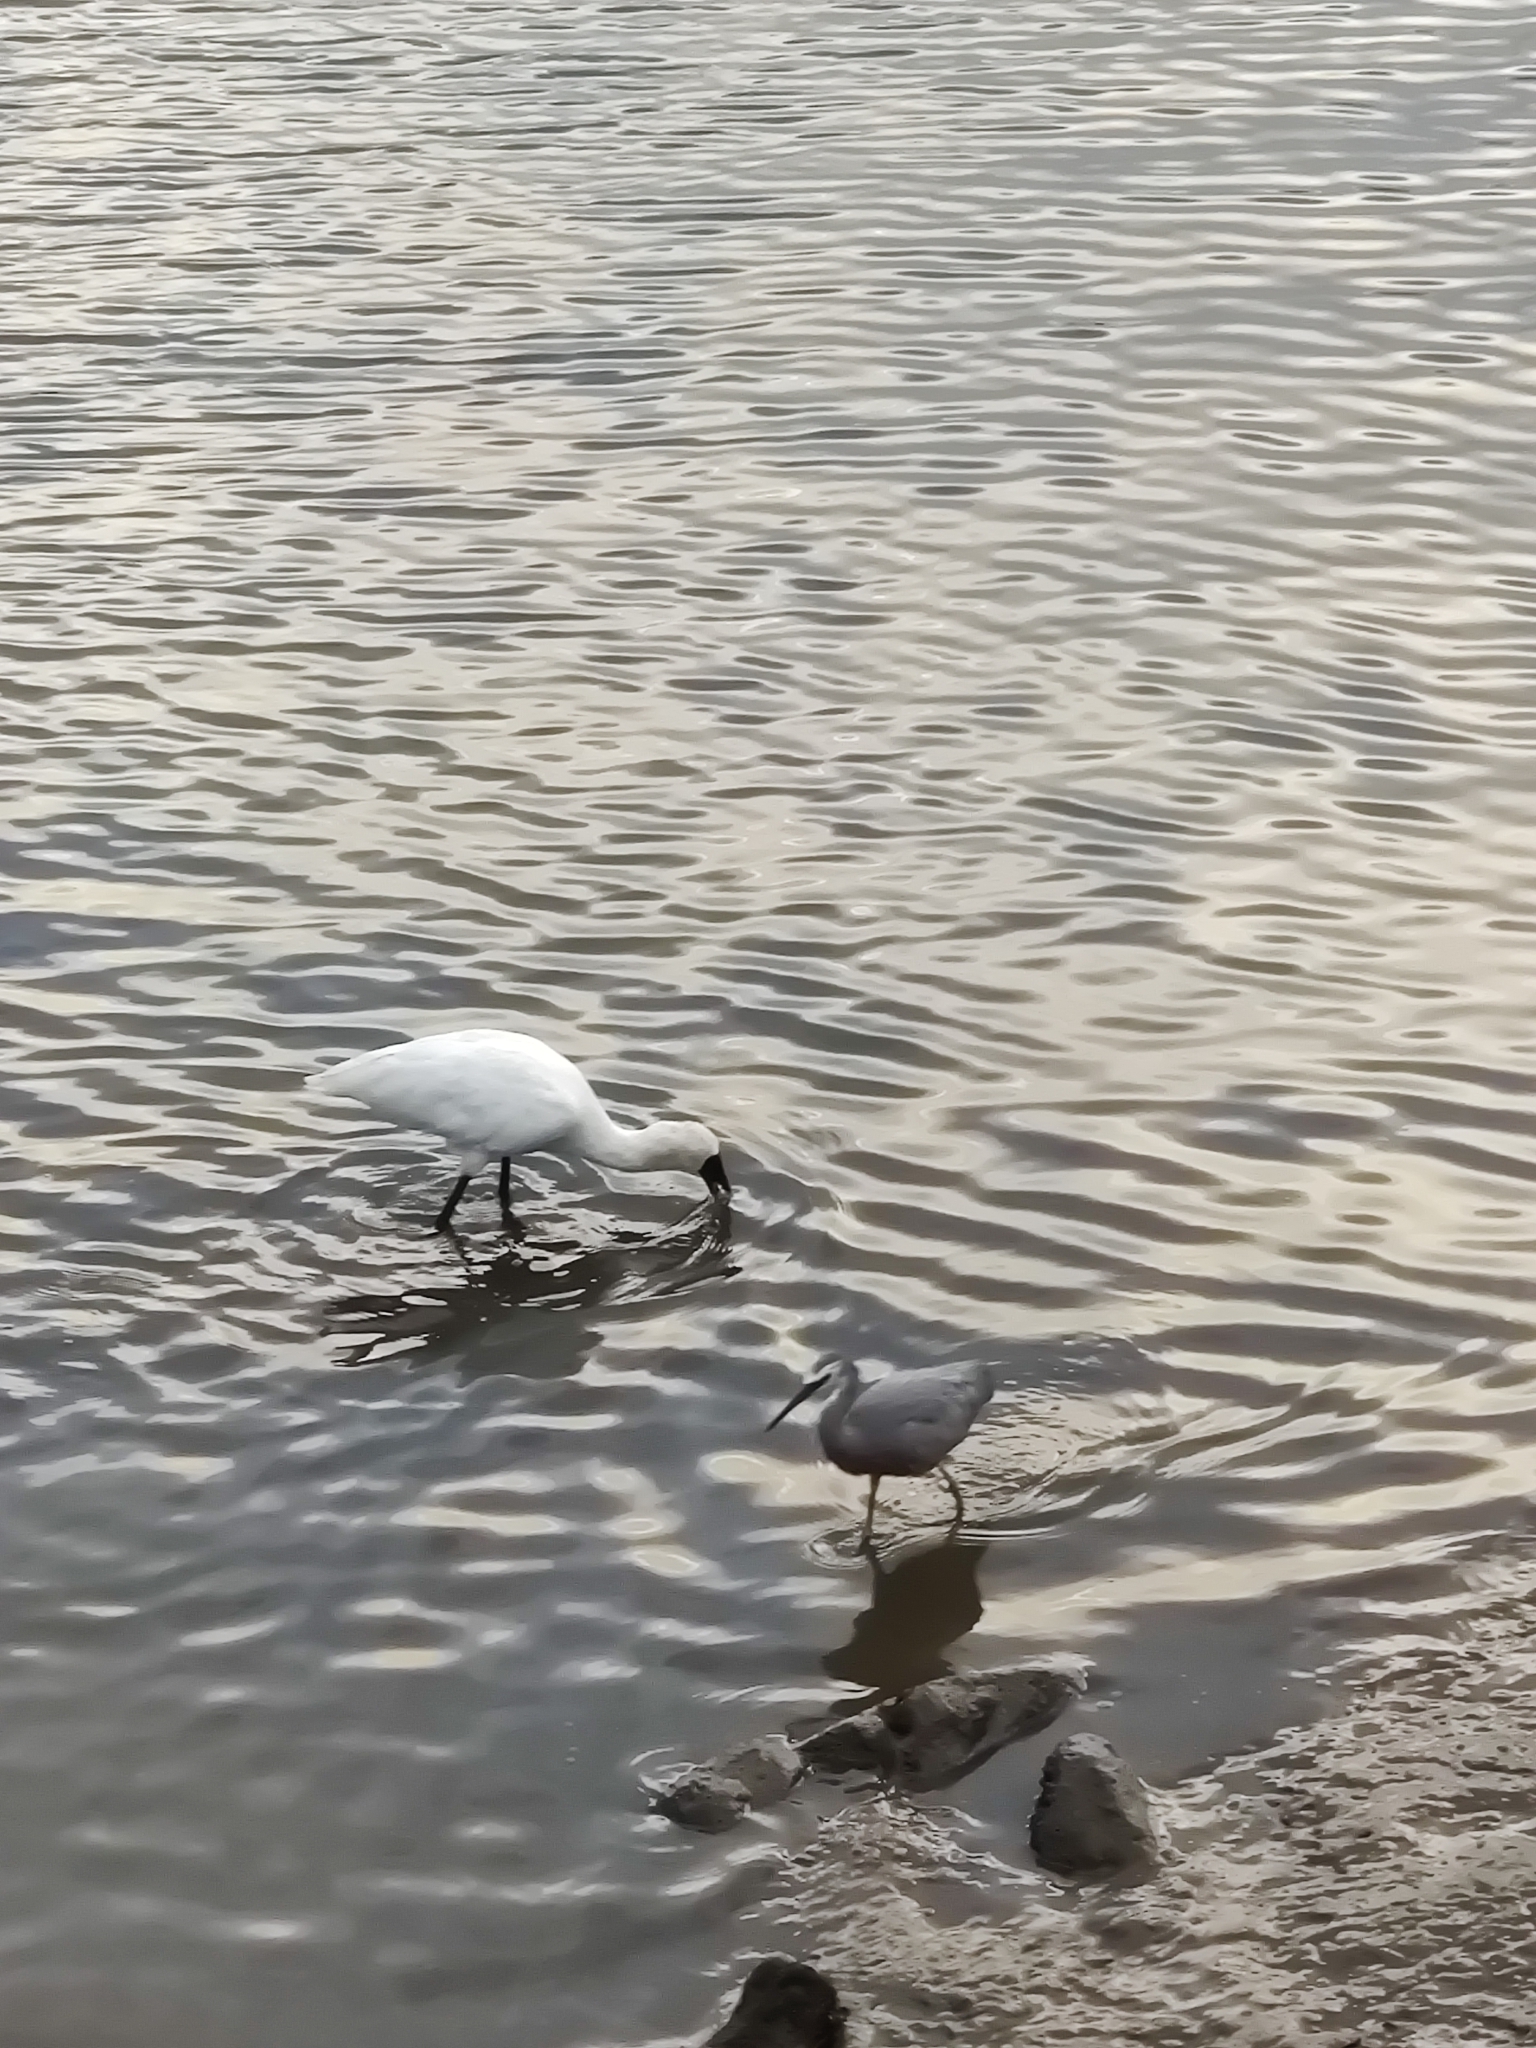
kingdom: Animalia
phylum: Chordata
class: Aves
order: Pelecaniformes
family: Ardeidae
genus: Egretta
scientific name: Egretta novaehollandiae
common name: White-faced heron
